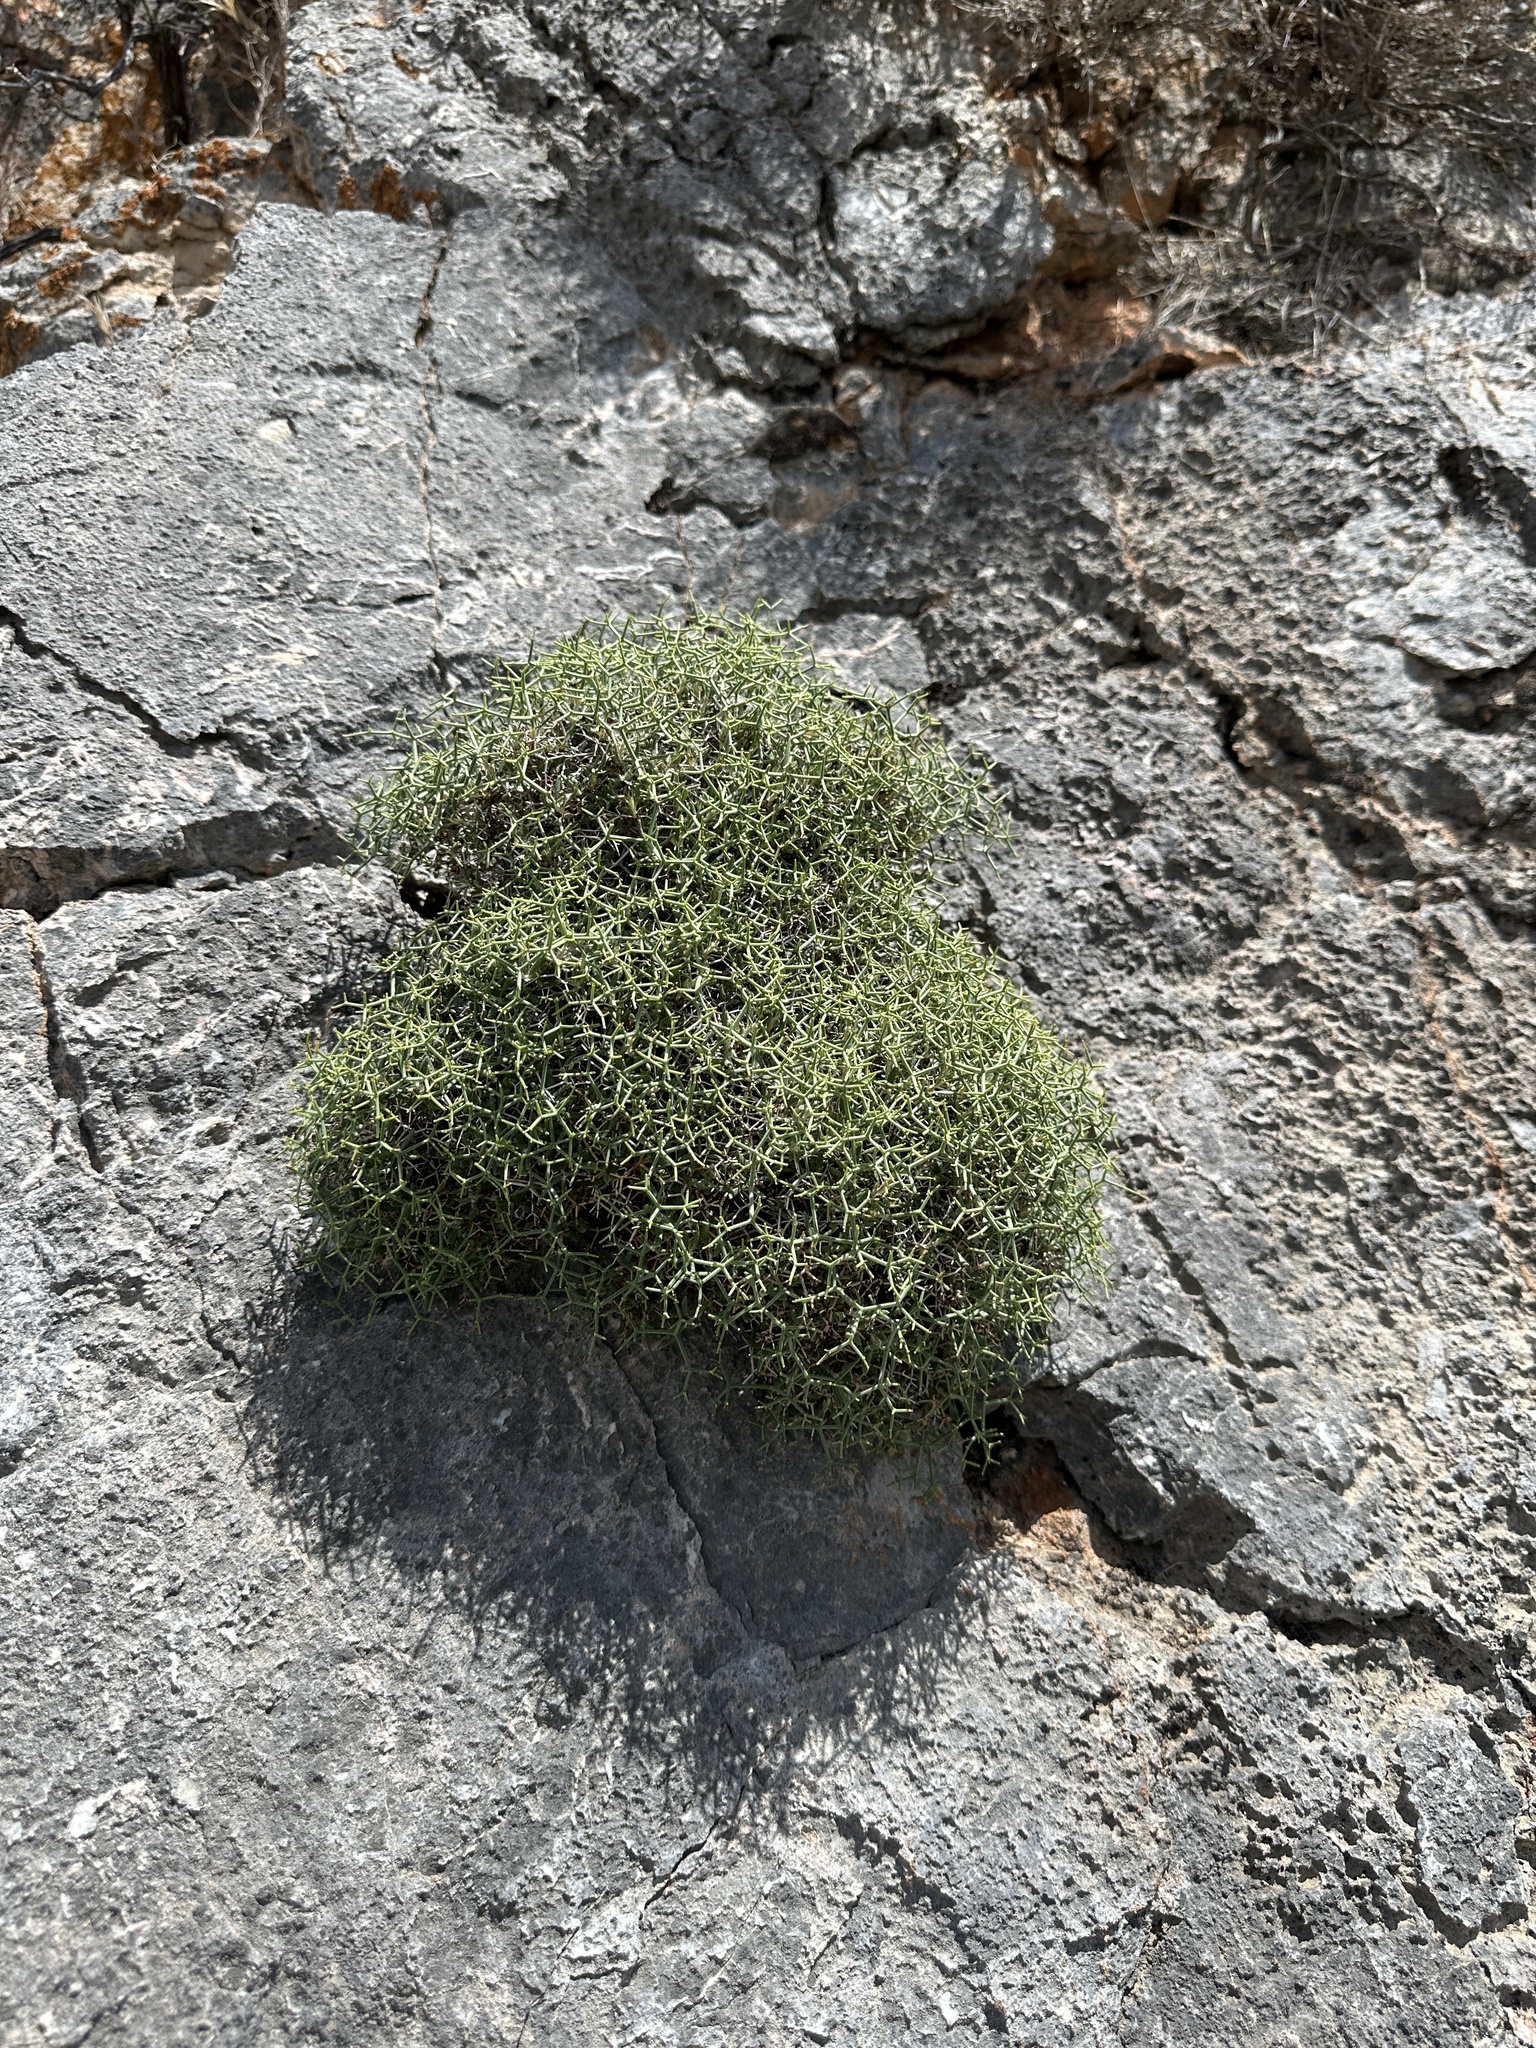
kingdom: Plantae
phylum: Tracheophyta
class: Magnoliopsida
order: Caryophyllales
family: Polygonaceae
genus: Eriogonum
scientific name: Eriogonum heermannii
